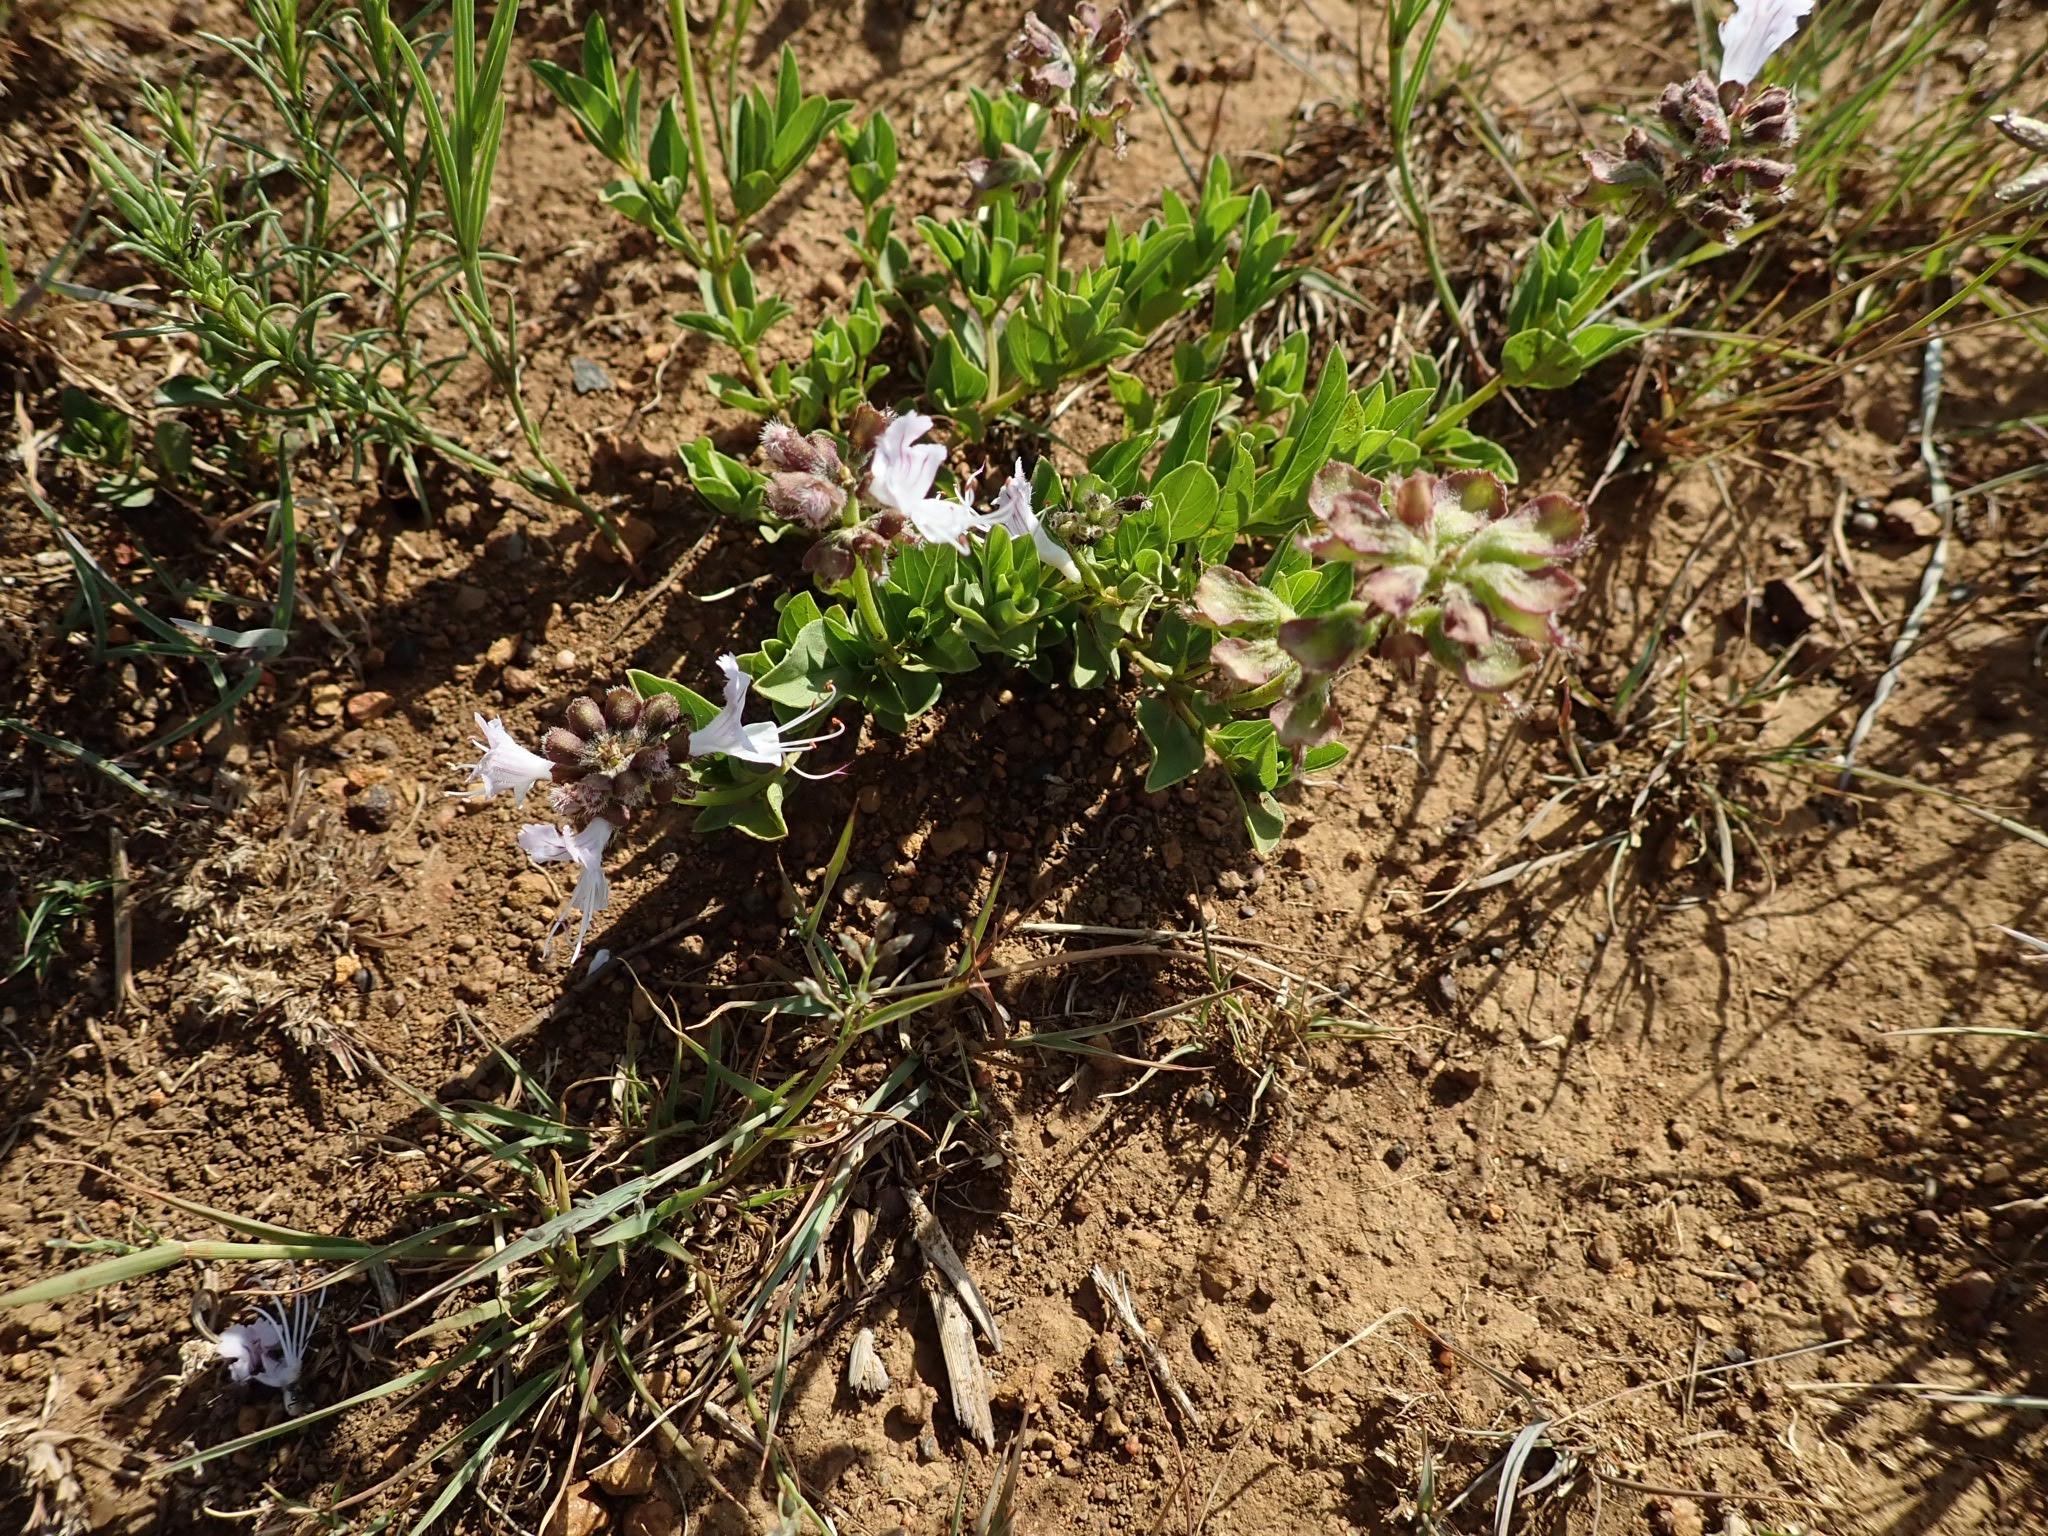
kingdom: Plantae
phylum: Tracheophyta
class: Magnoliopsida
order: Lamiales
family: Lamiaceae
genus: Ocimum
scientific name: Ocimum obovatum
